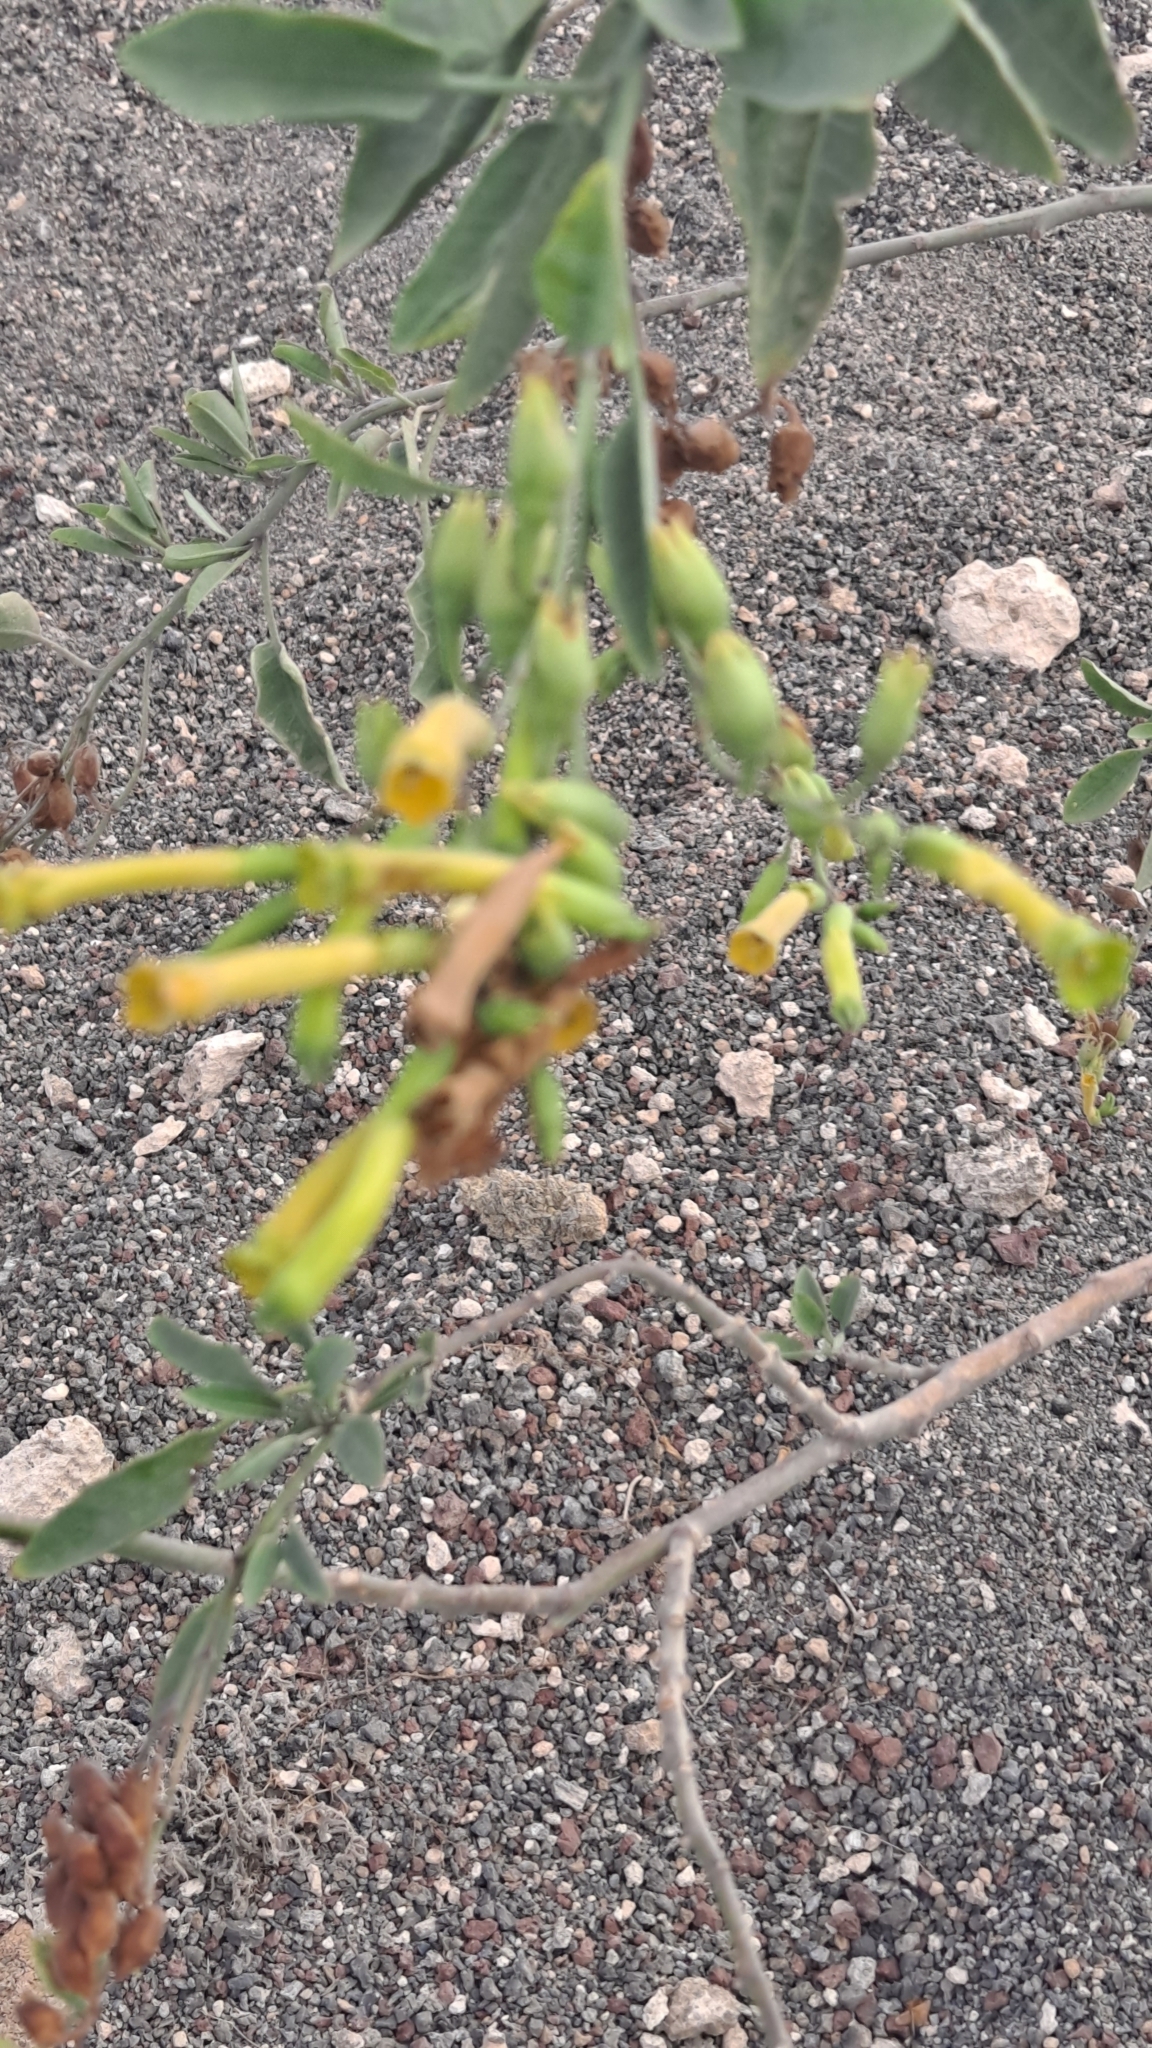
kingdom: Plantae
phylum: Tracheophyta
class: Magnoliopsida
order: Solanales
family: Solanaceae
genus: Nicotiana
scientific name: Nicotiana glauca
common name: Tree tobacco
